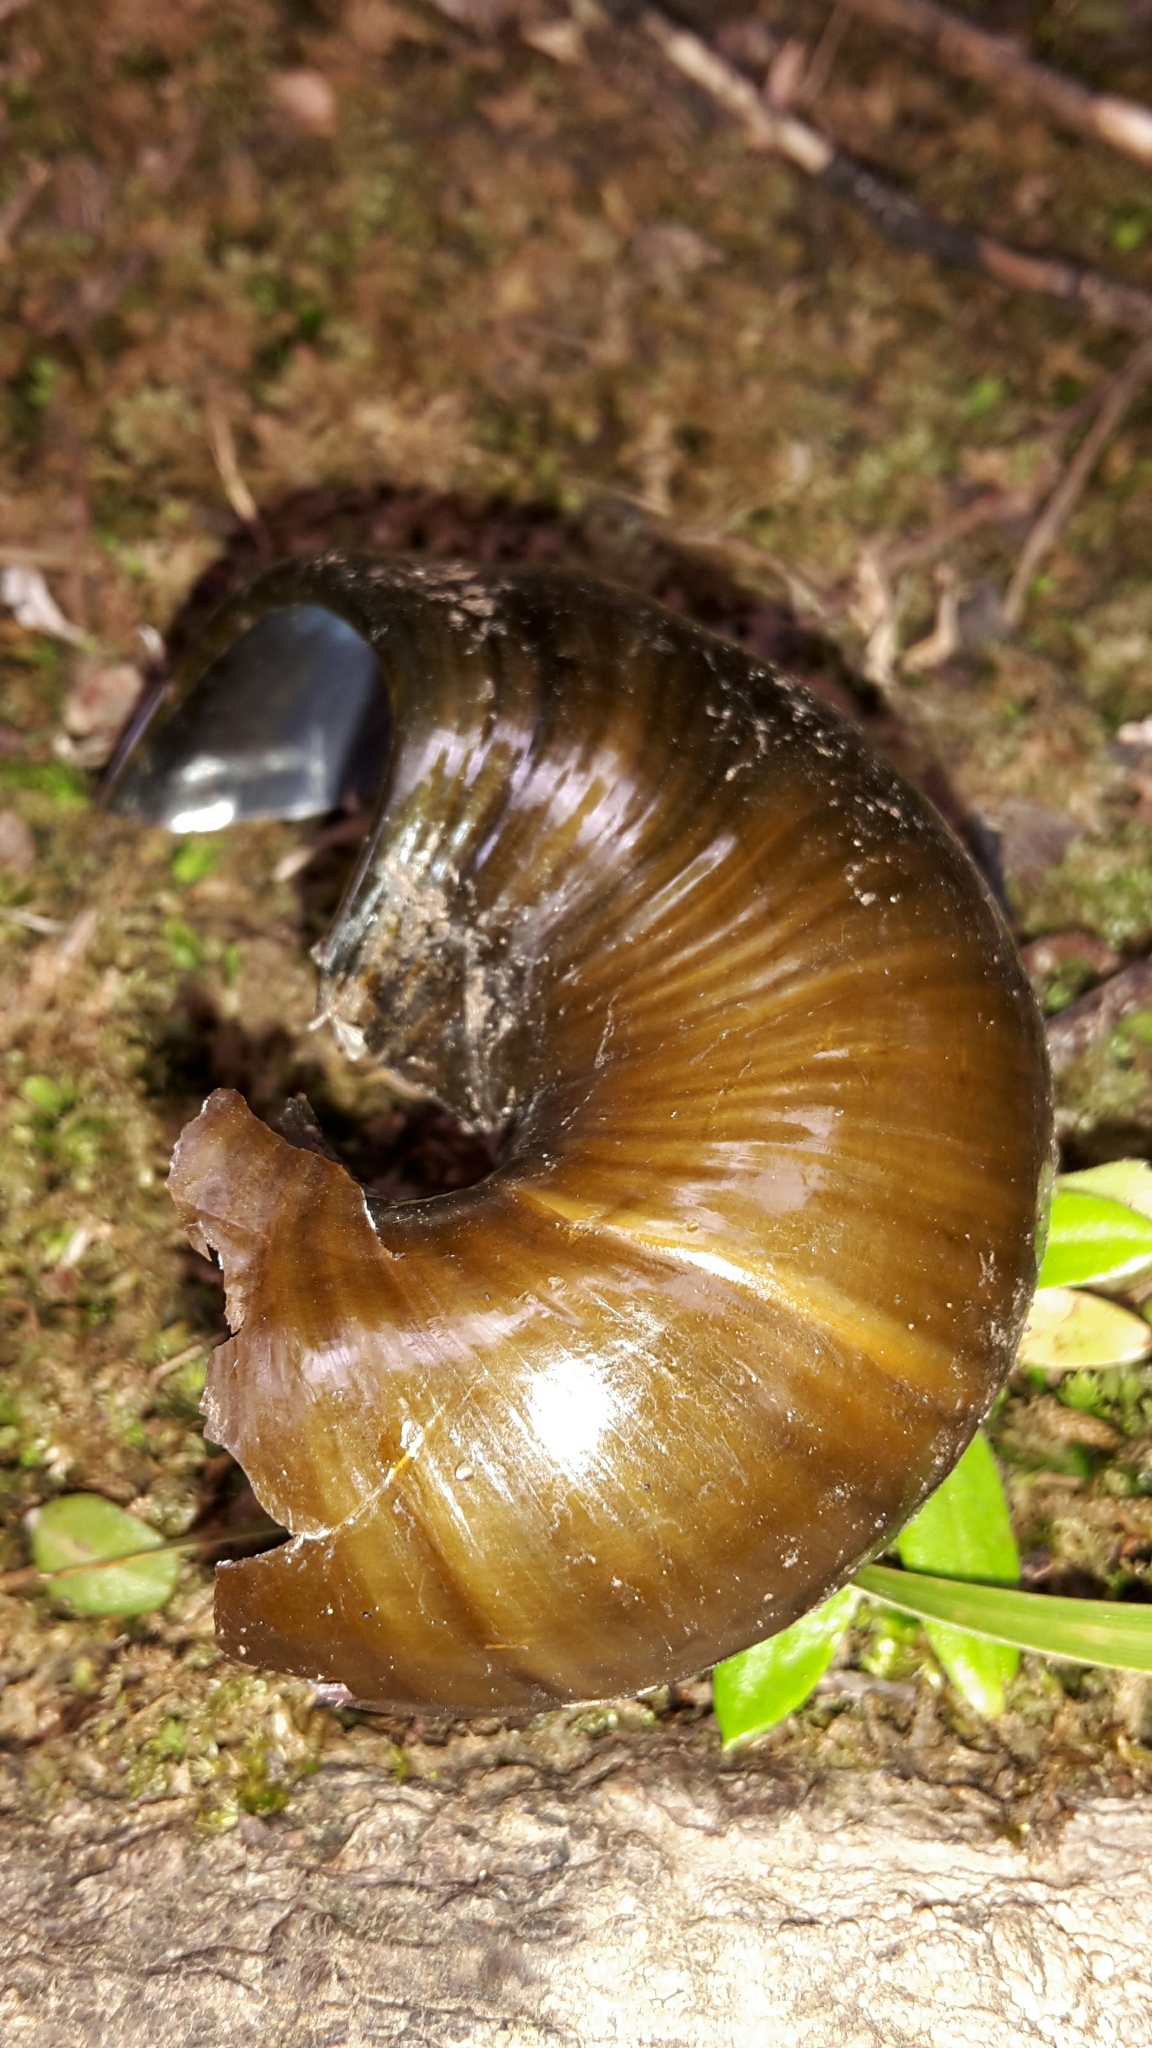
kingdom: Animalia
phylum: Mollusca
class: Gastropoda
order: Stylommatophora
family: Rhytididae
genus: Paryphanta
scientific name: Paryphanta busbyi
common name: Kauri snail
